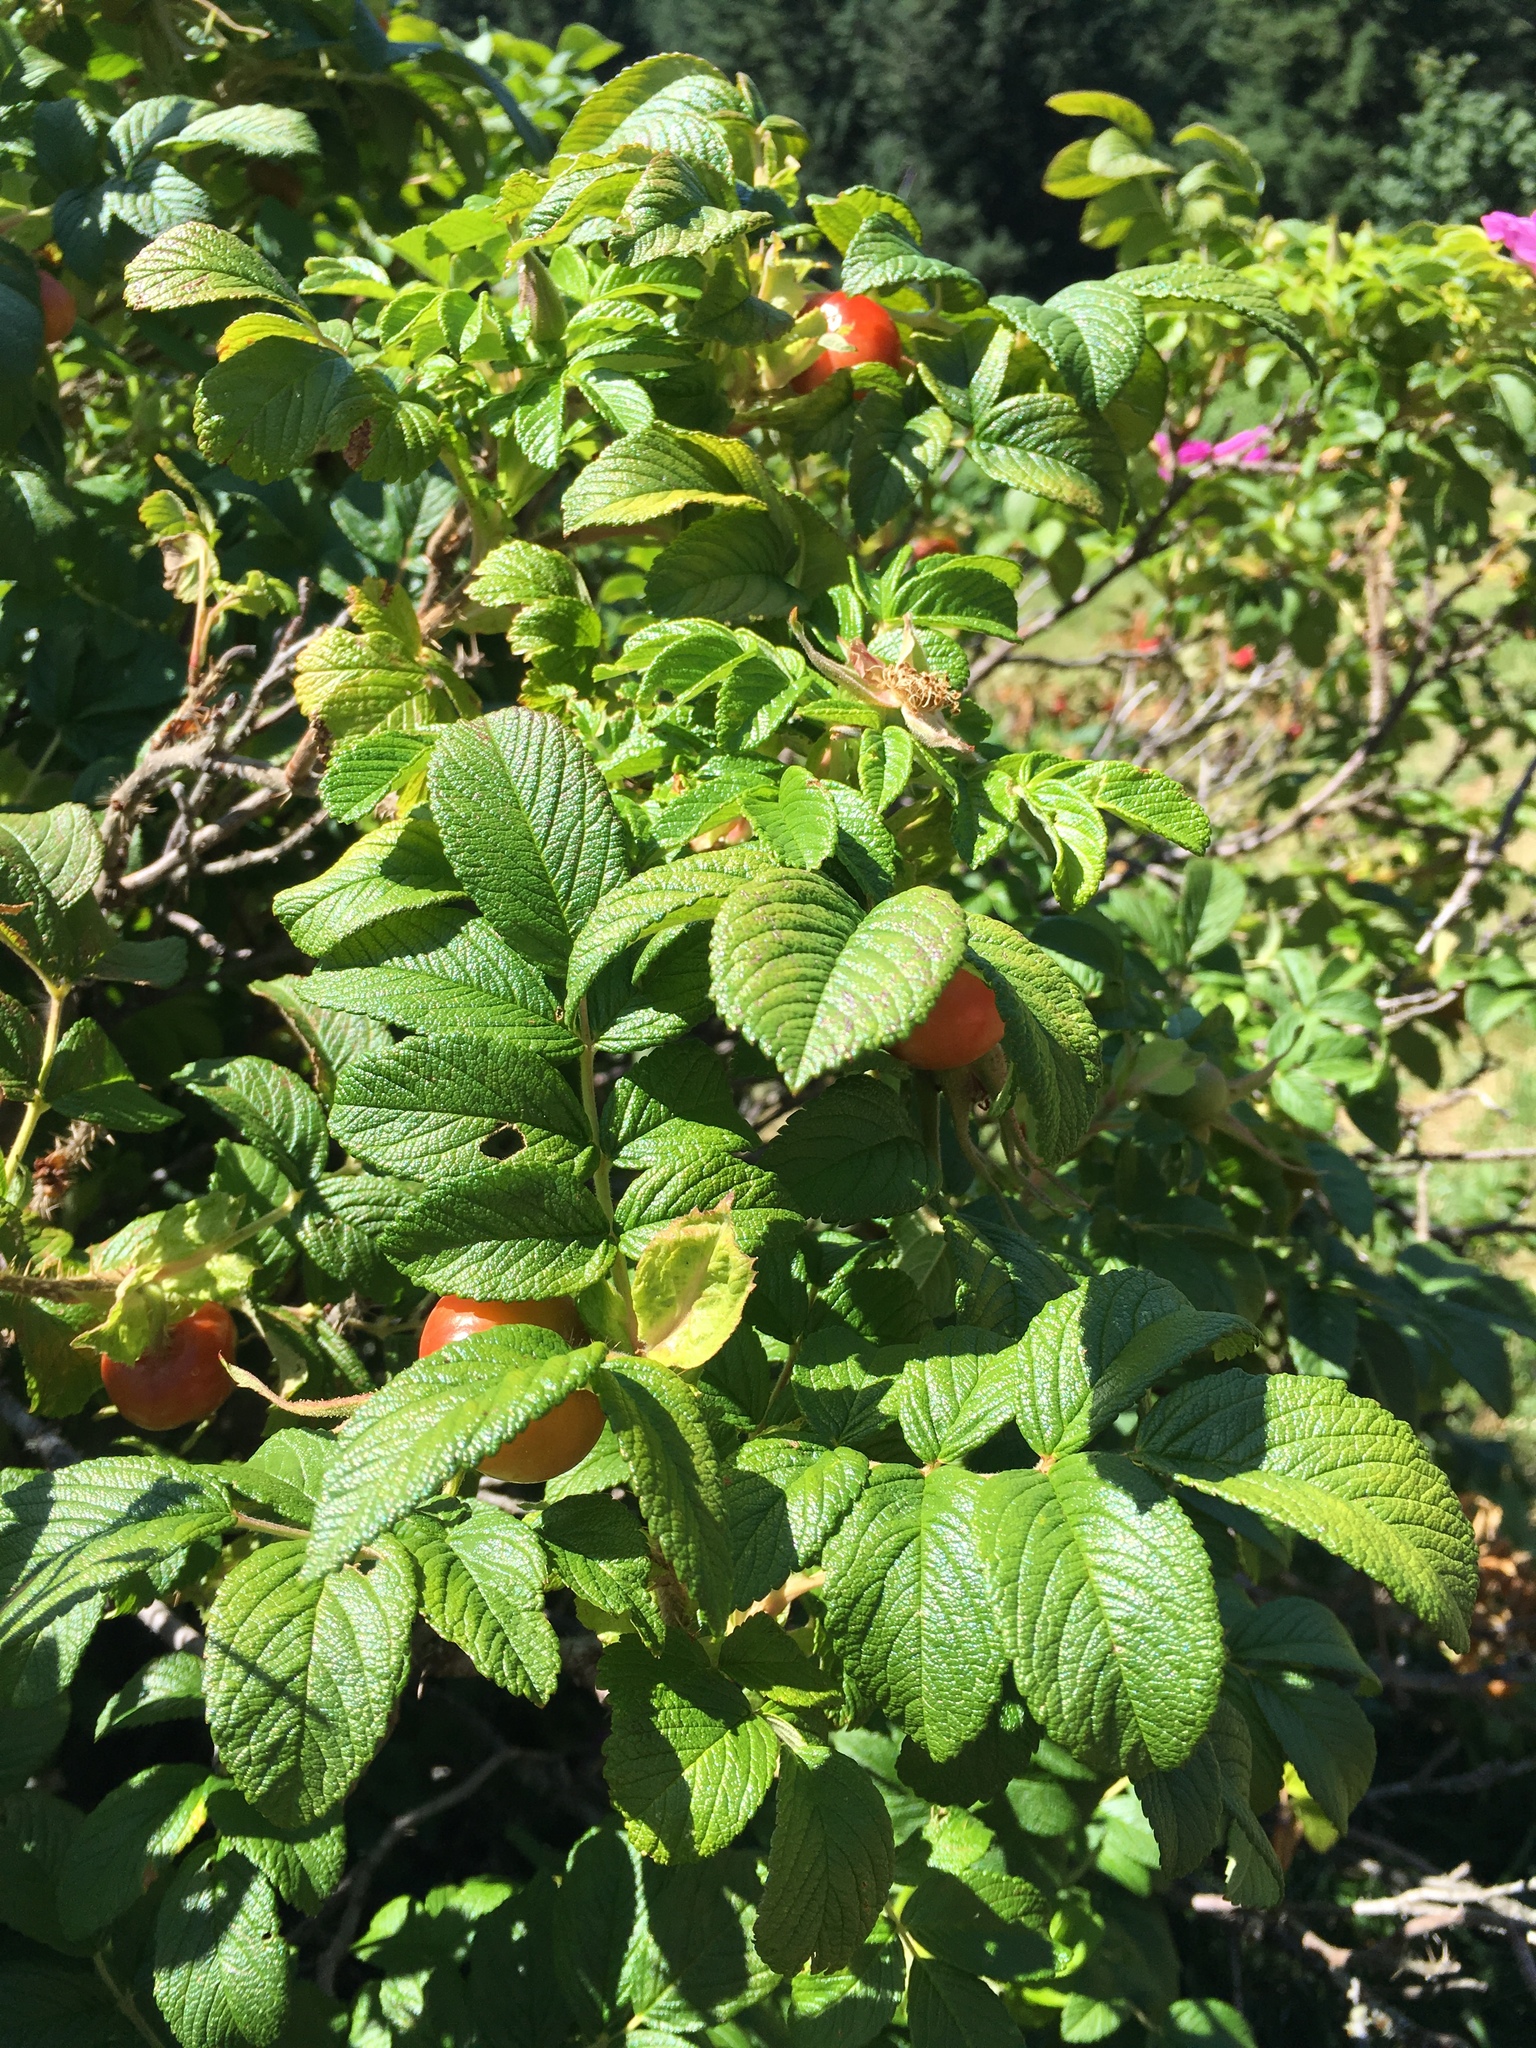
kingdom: Plantae
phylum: Tracheophyta
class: Magnoliopsida
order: Rosales
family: Rosaceae
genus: Rosa
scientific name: Rosa rugosa
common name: Japanese rose
